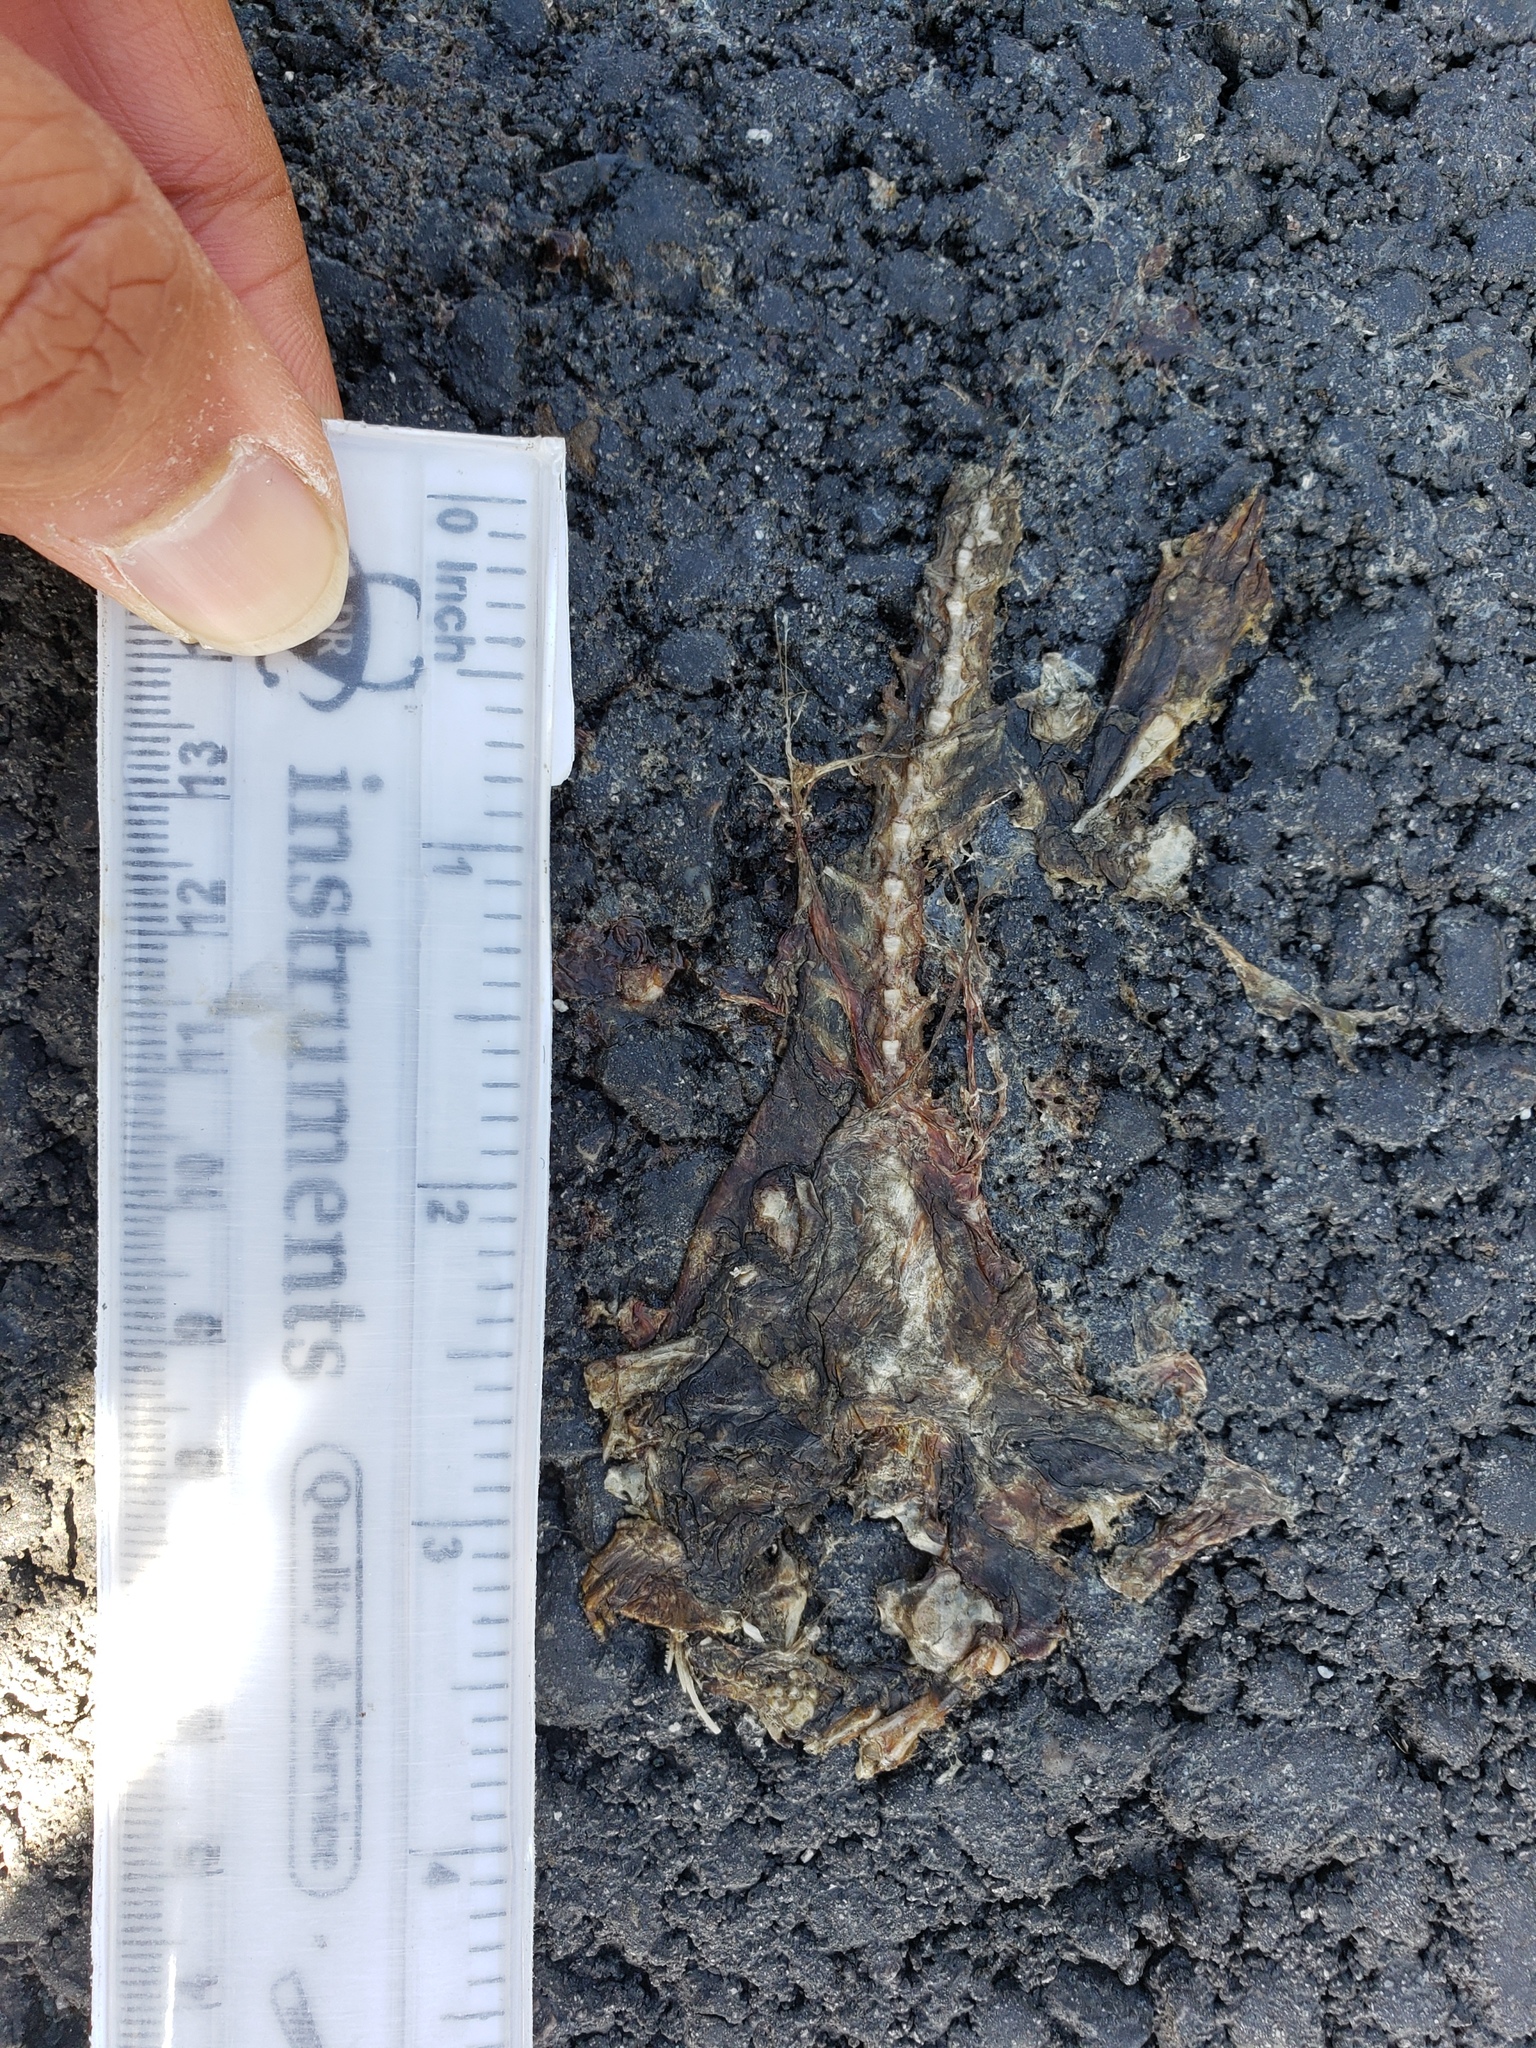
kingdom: Animalia
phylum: Chordata
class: Amphibia
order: Caudata
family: Salamandridae
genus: Taricha
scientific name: Taricha
